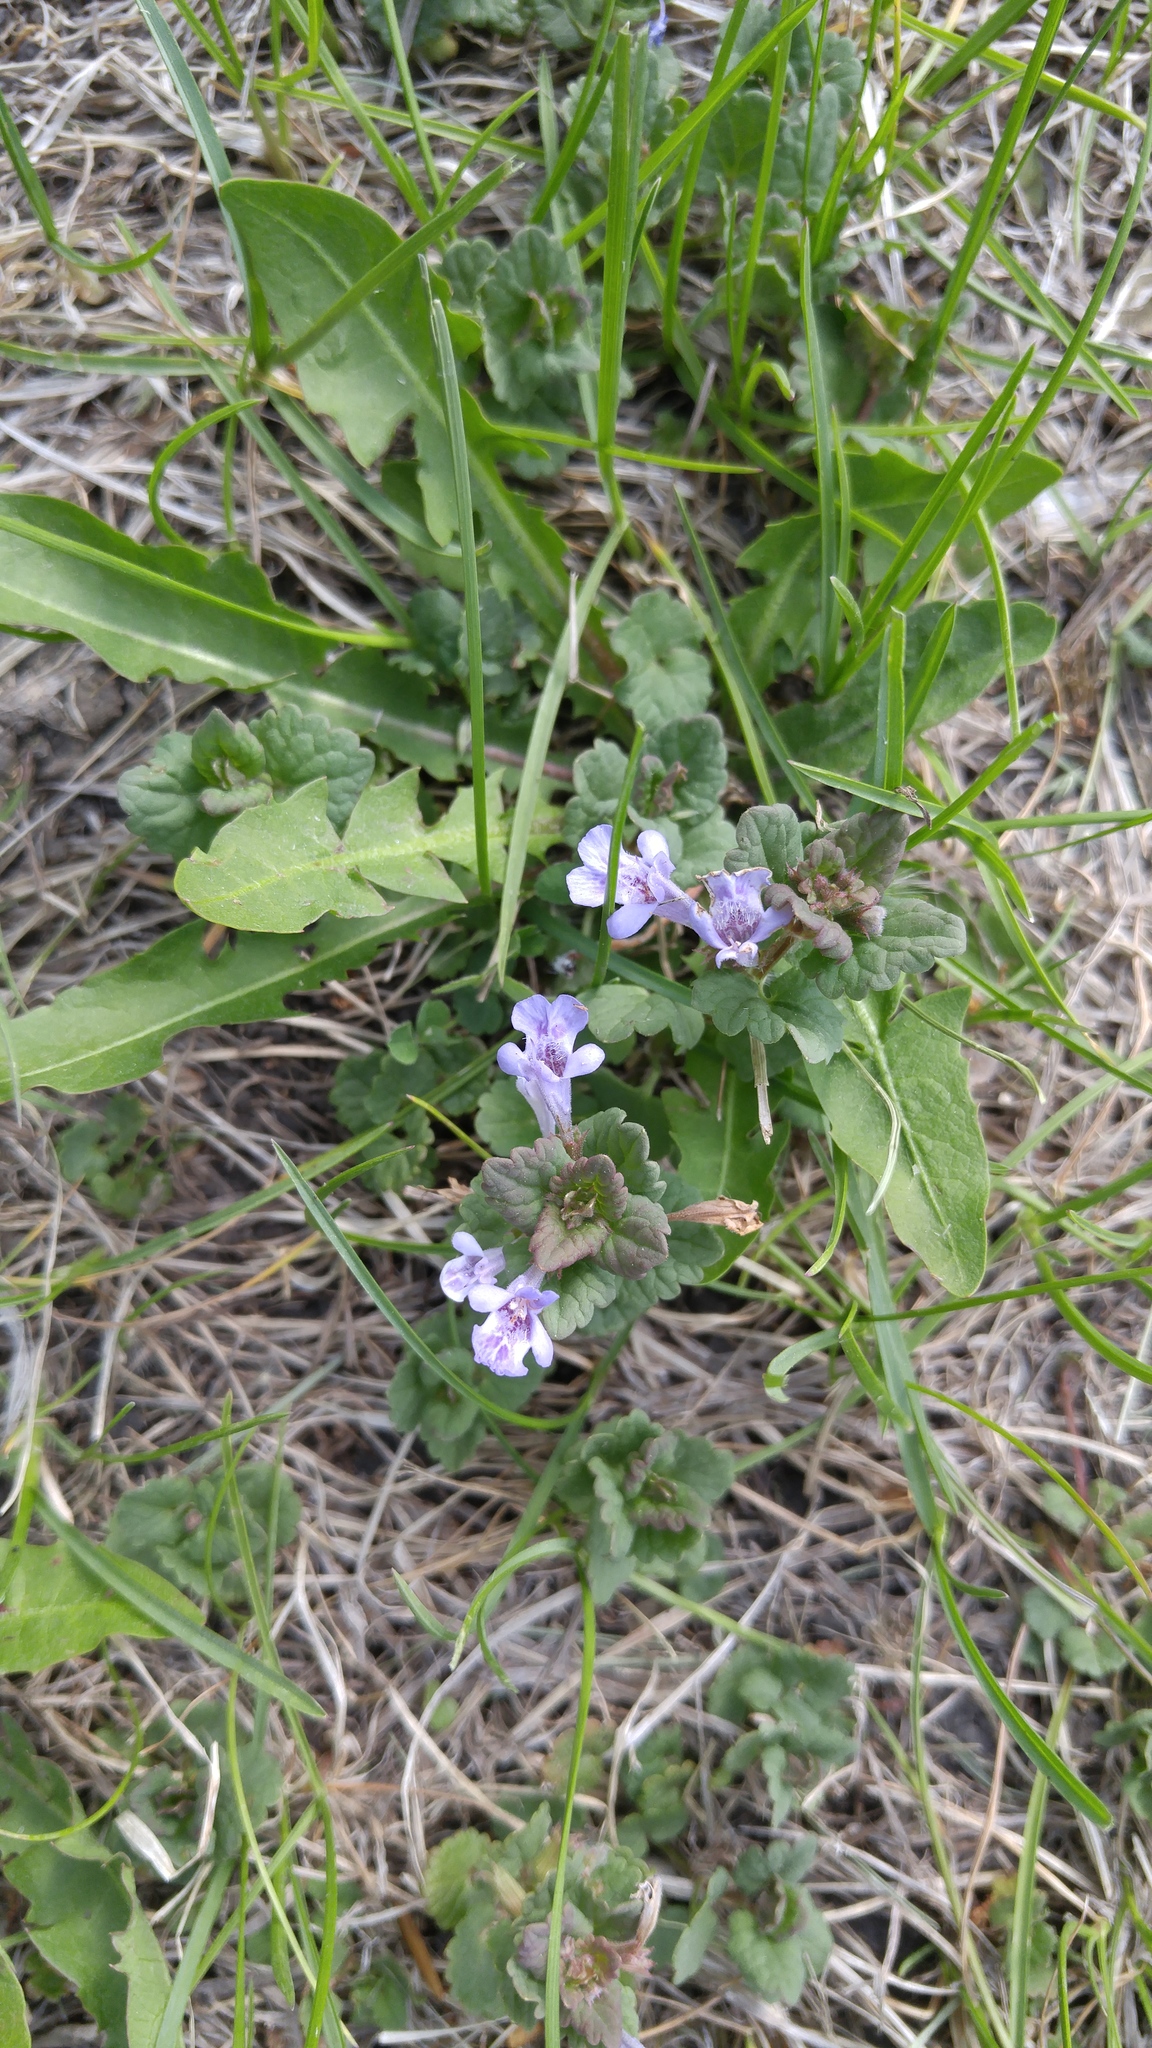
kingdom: Plantae
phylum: Tracheophyta
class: Magnoliopsida
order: Lamiales
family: Lamiaceae
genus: Glechoma
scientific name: Glechoma hederacea
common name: Ground ivy
